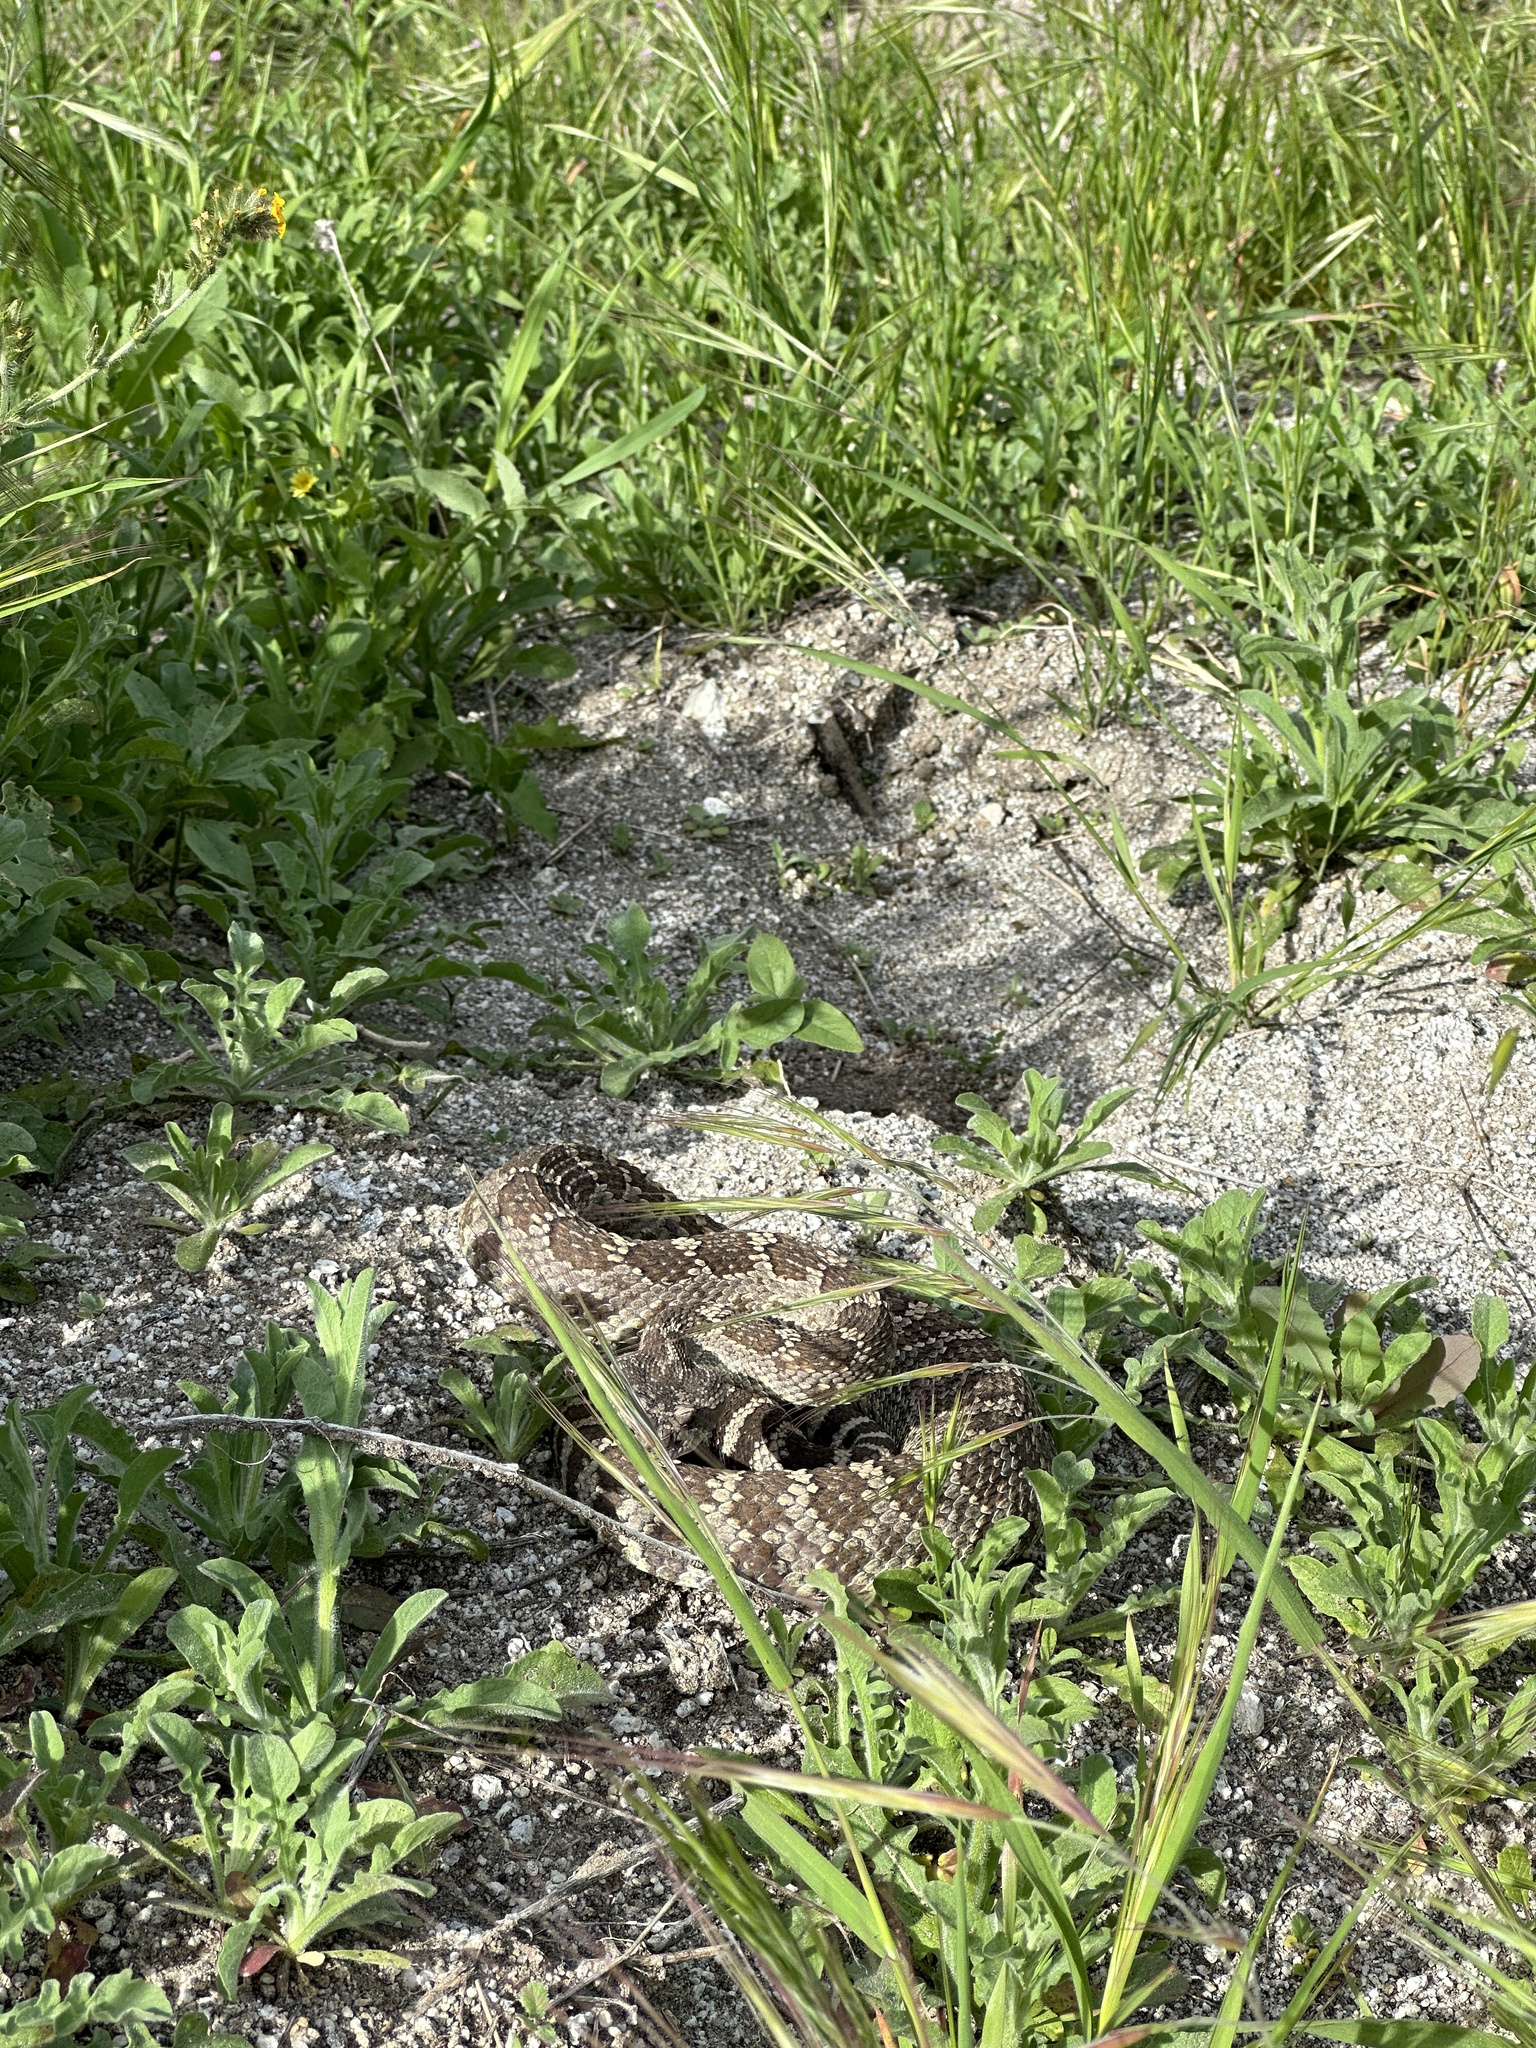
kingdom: Animalia
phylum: Chordata
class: Squamata
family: Viperidae
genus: Crotalus
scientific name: Crotalus oreganus
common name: Abyssus
